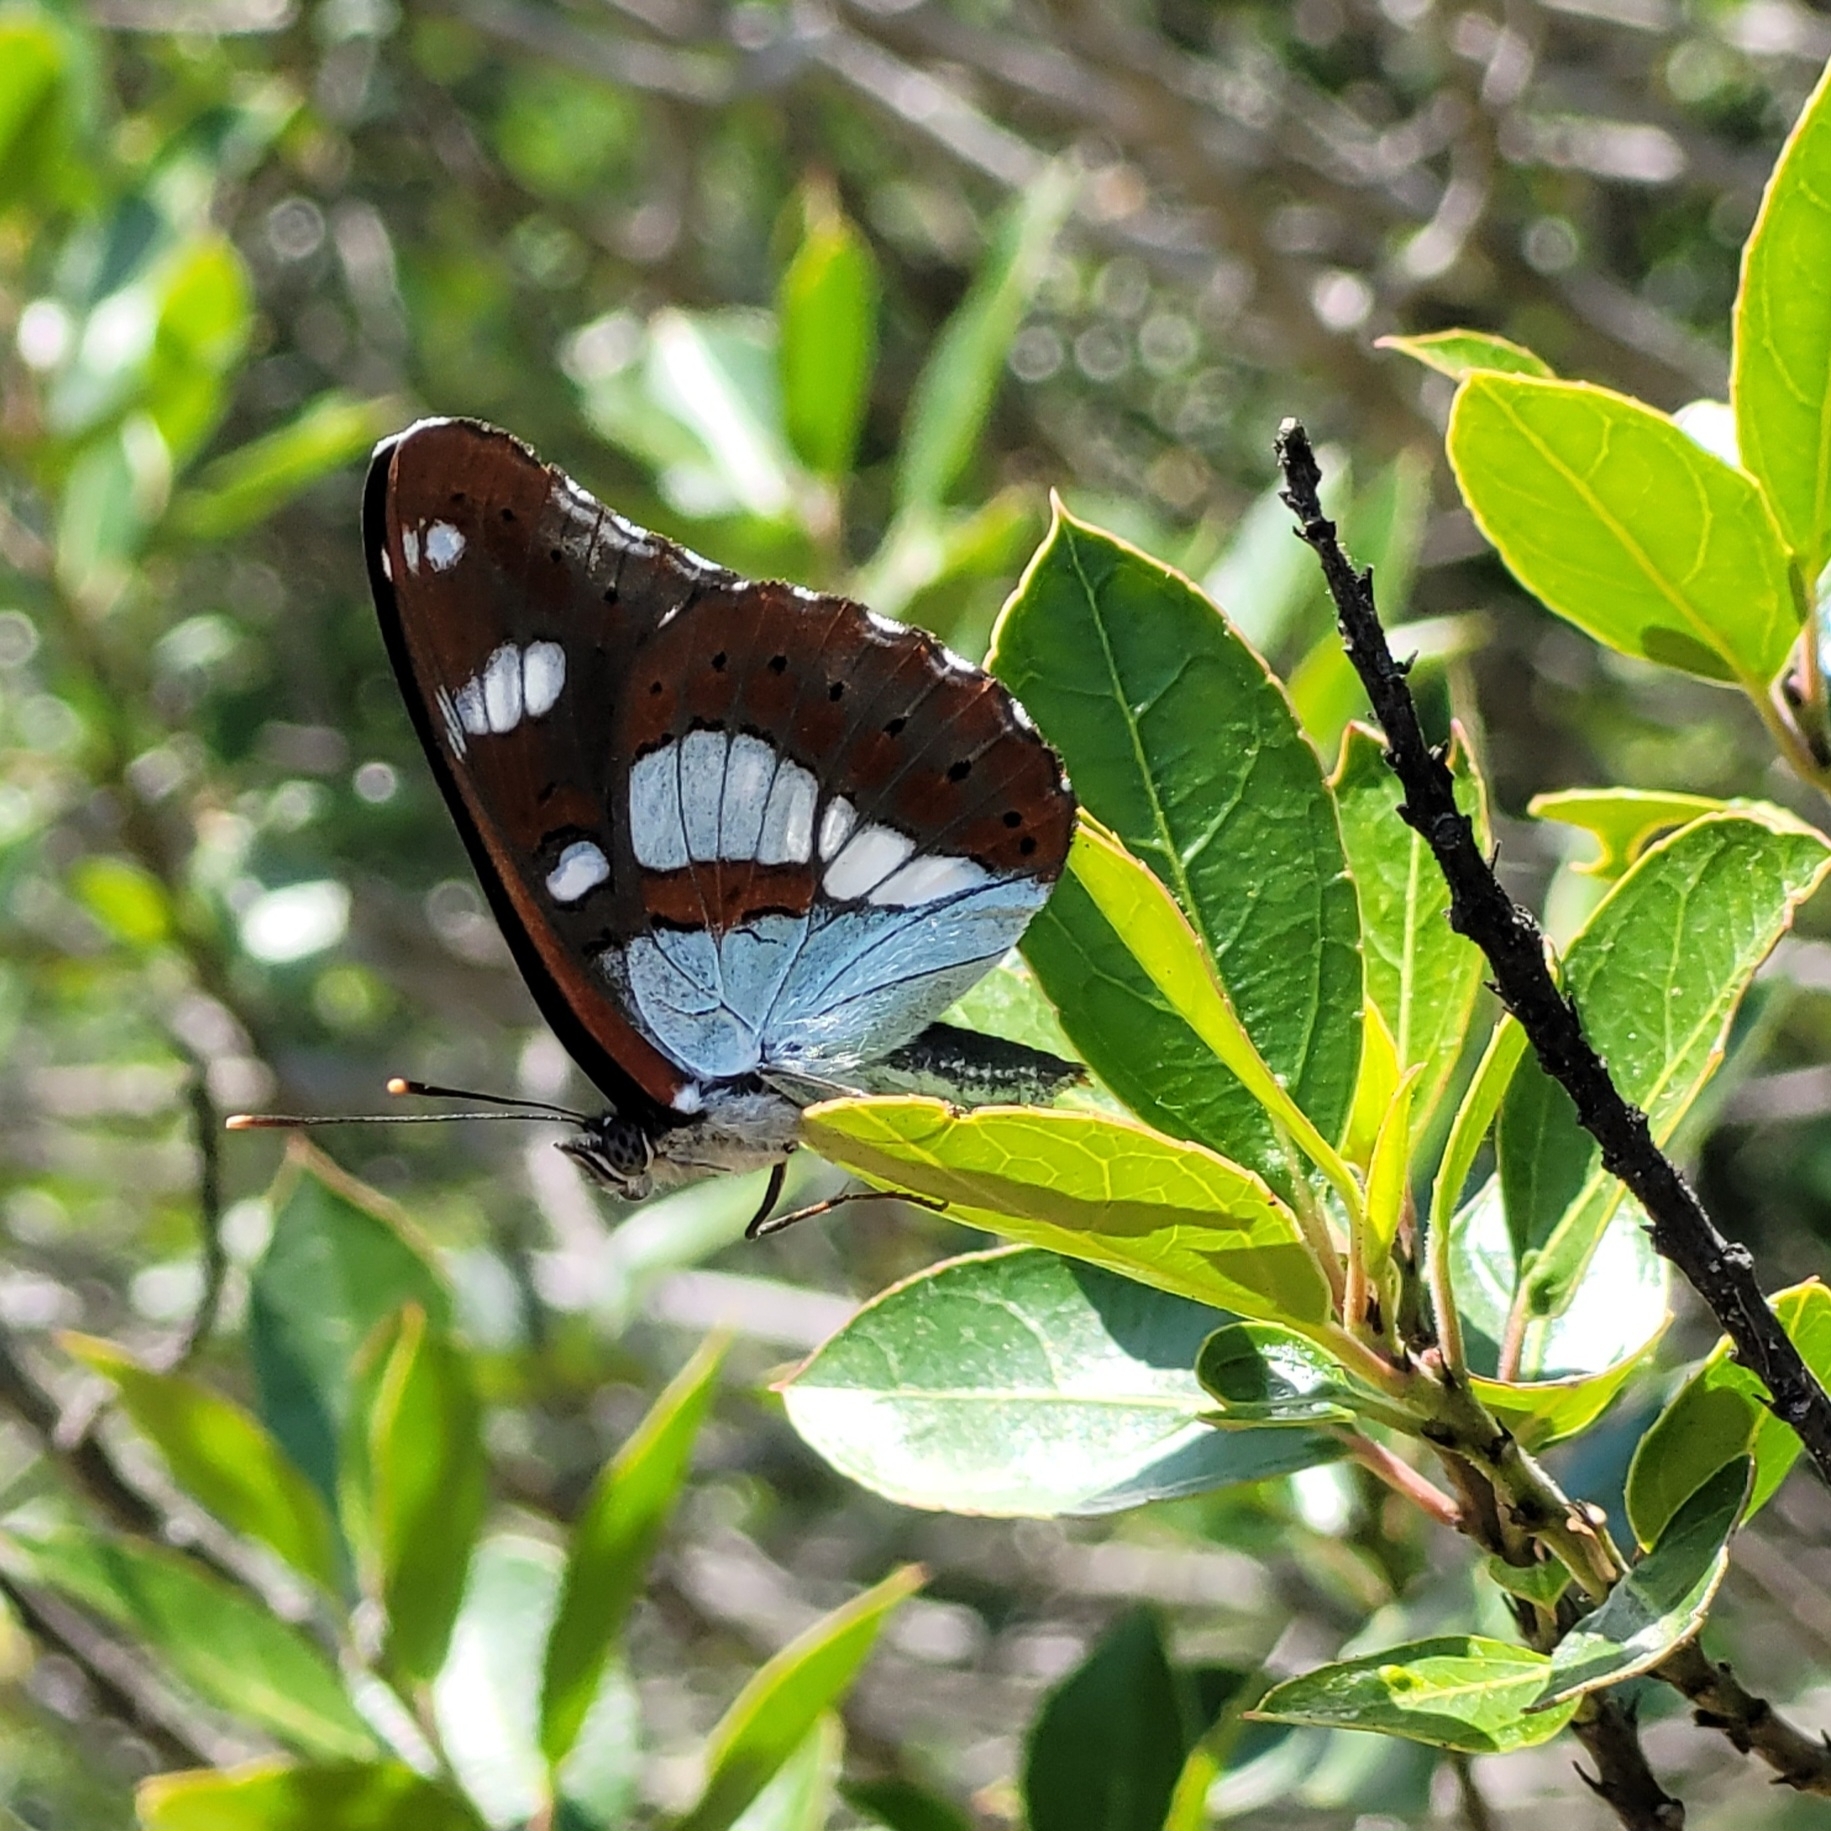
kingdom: Animalia
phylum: Arthropoda
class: Insecta
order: Lepidoptera
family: Nymphalidae
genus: Limenitis
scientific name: Limenitis reducta
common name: Southern white admiral
